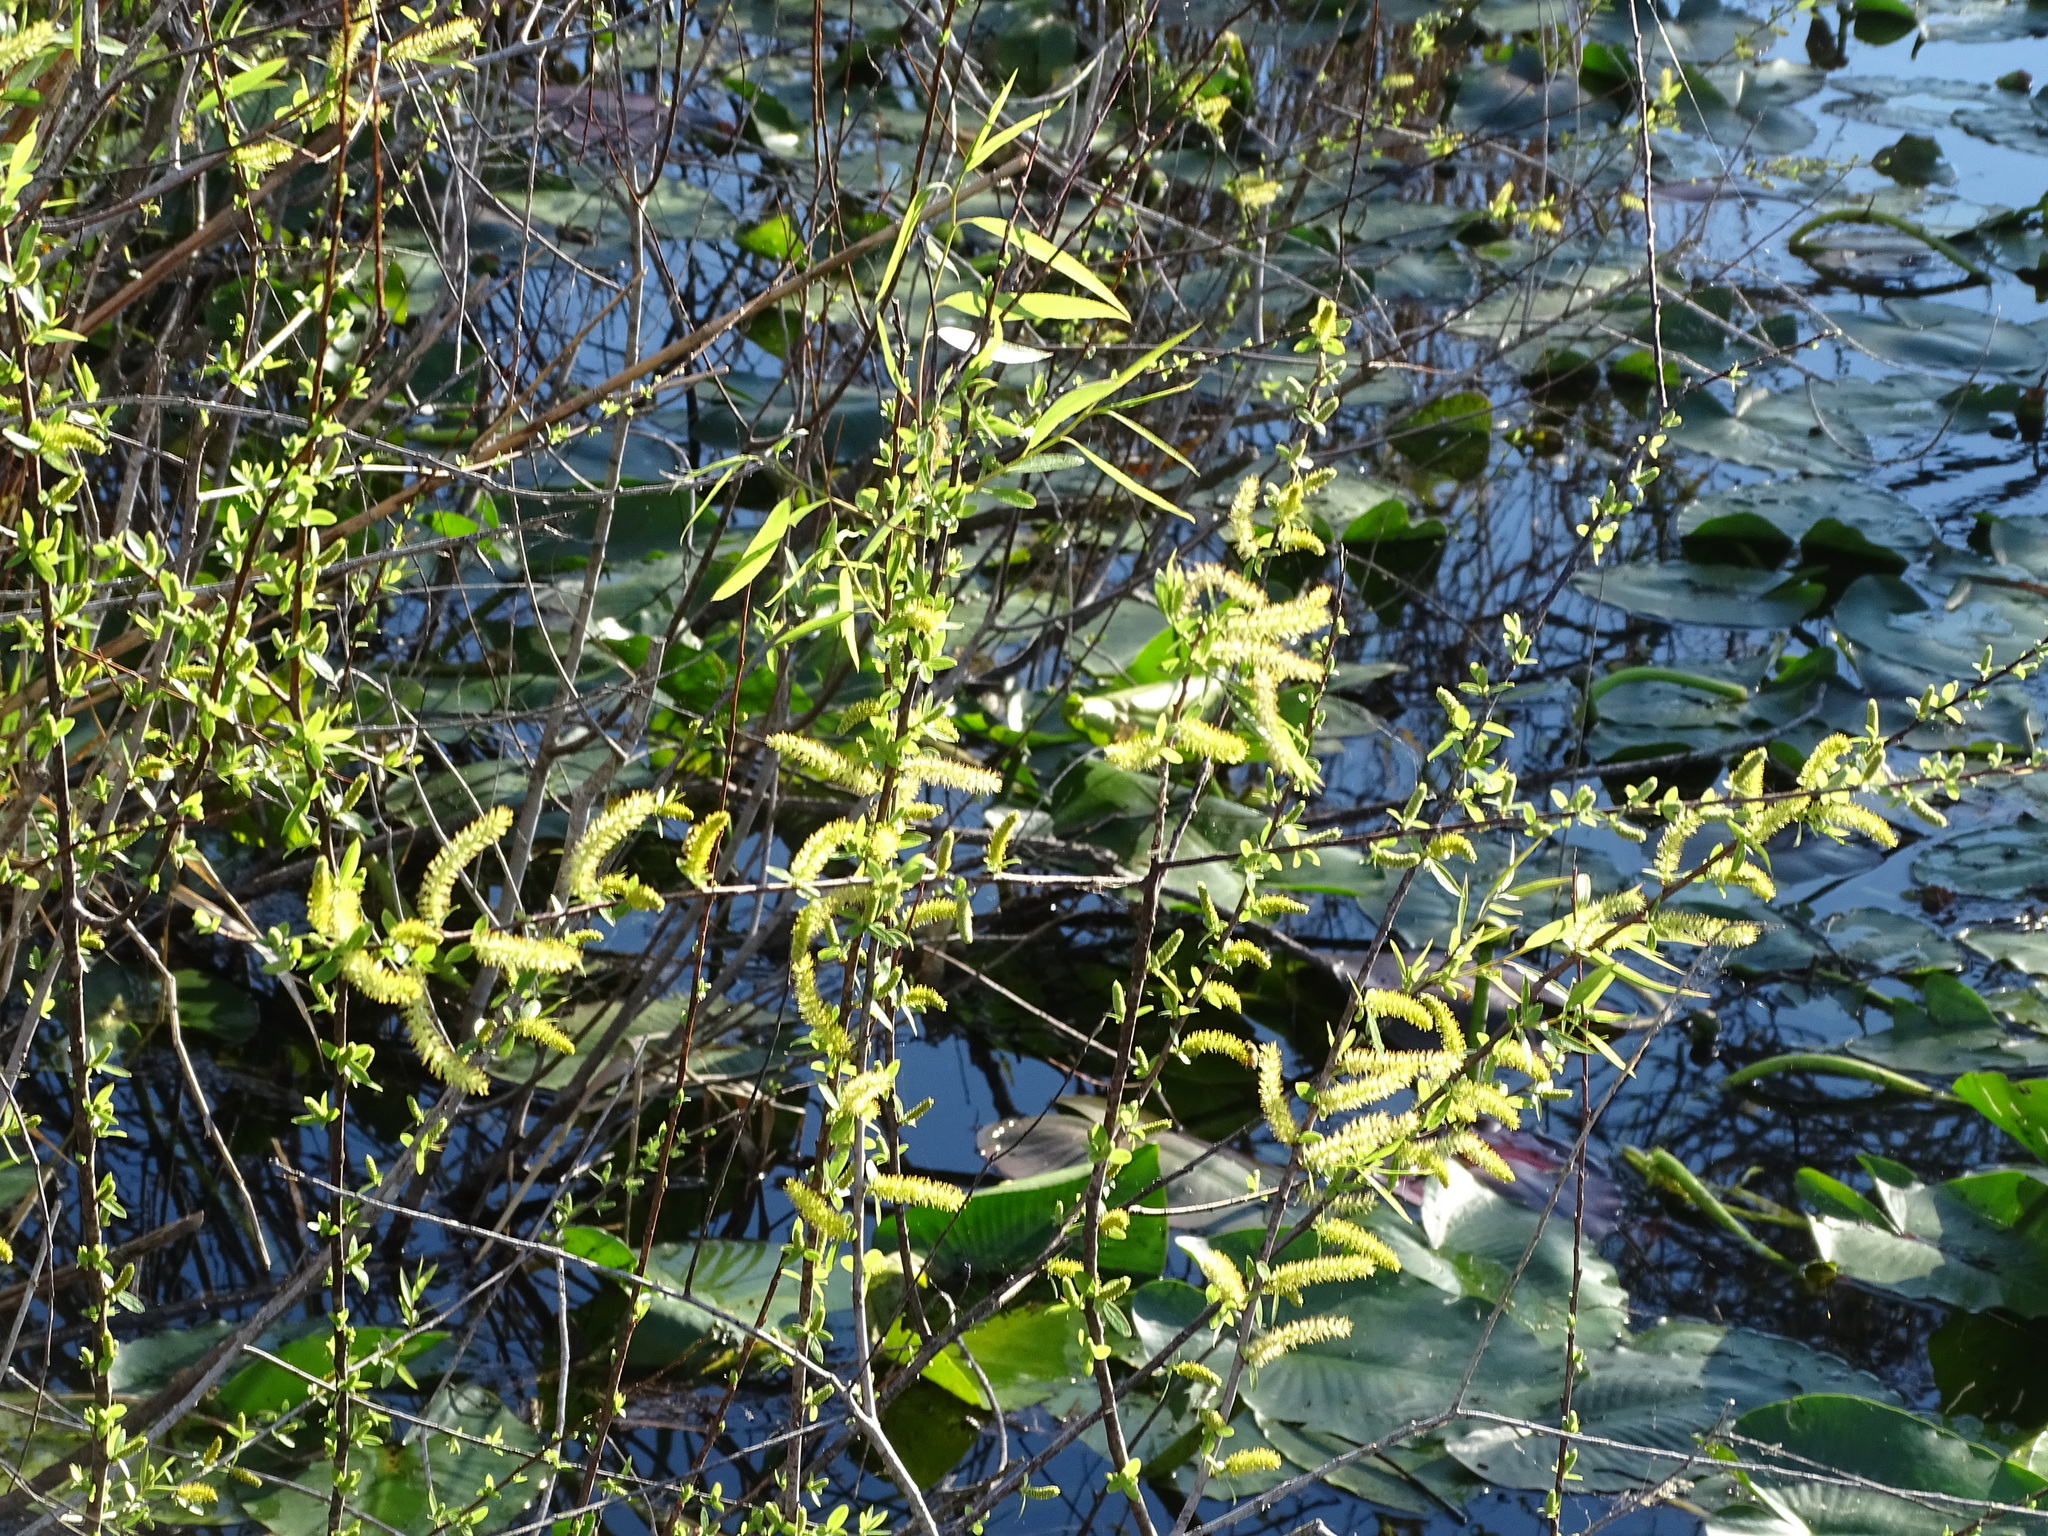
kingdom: Plantae
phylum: Tracheophyta
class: Magnoliopsida
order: Malpighiales
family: Salicaceae
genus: Salix
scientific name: Salix caroliniana
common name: Carolina willow
